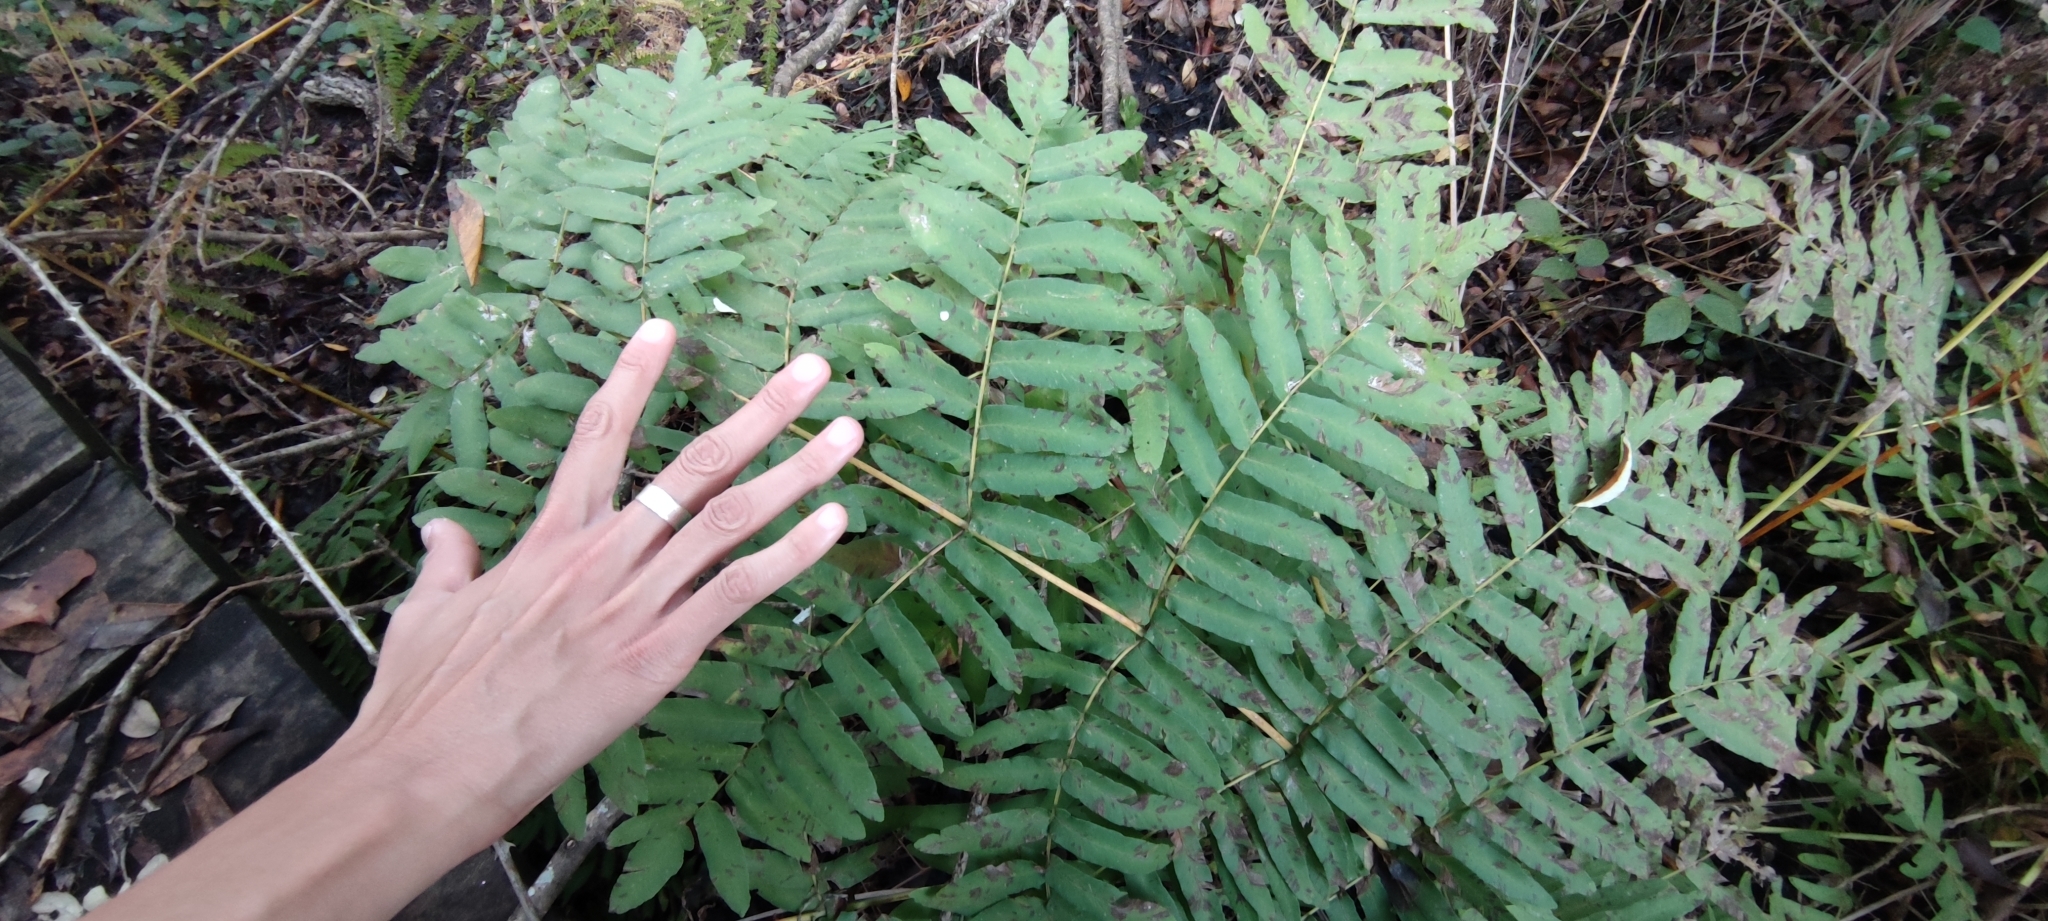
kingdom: Plantae
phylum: Tracheophyta
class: Polypodiopsida
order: Osmundales
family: Osmundaceae
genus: Osmunda
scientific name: Osmunda regalis
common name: Royal fern
